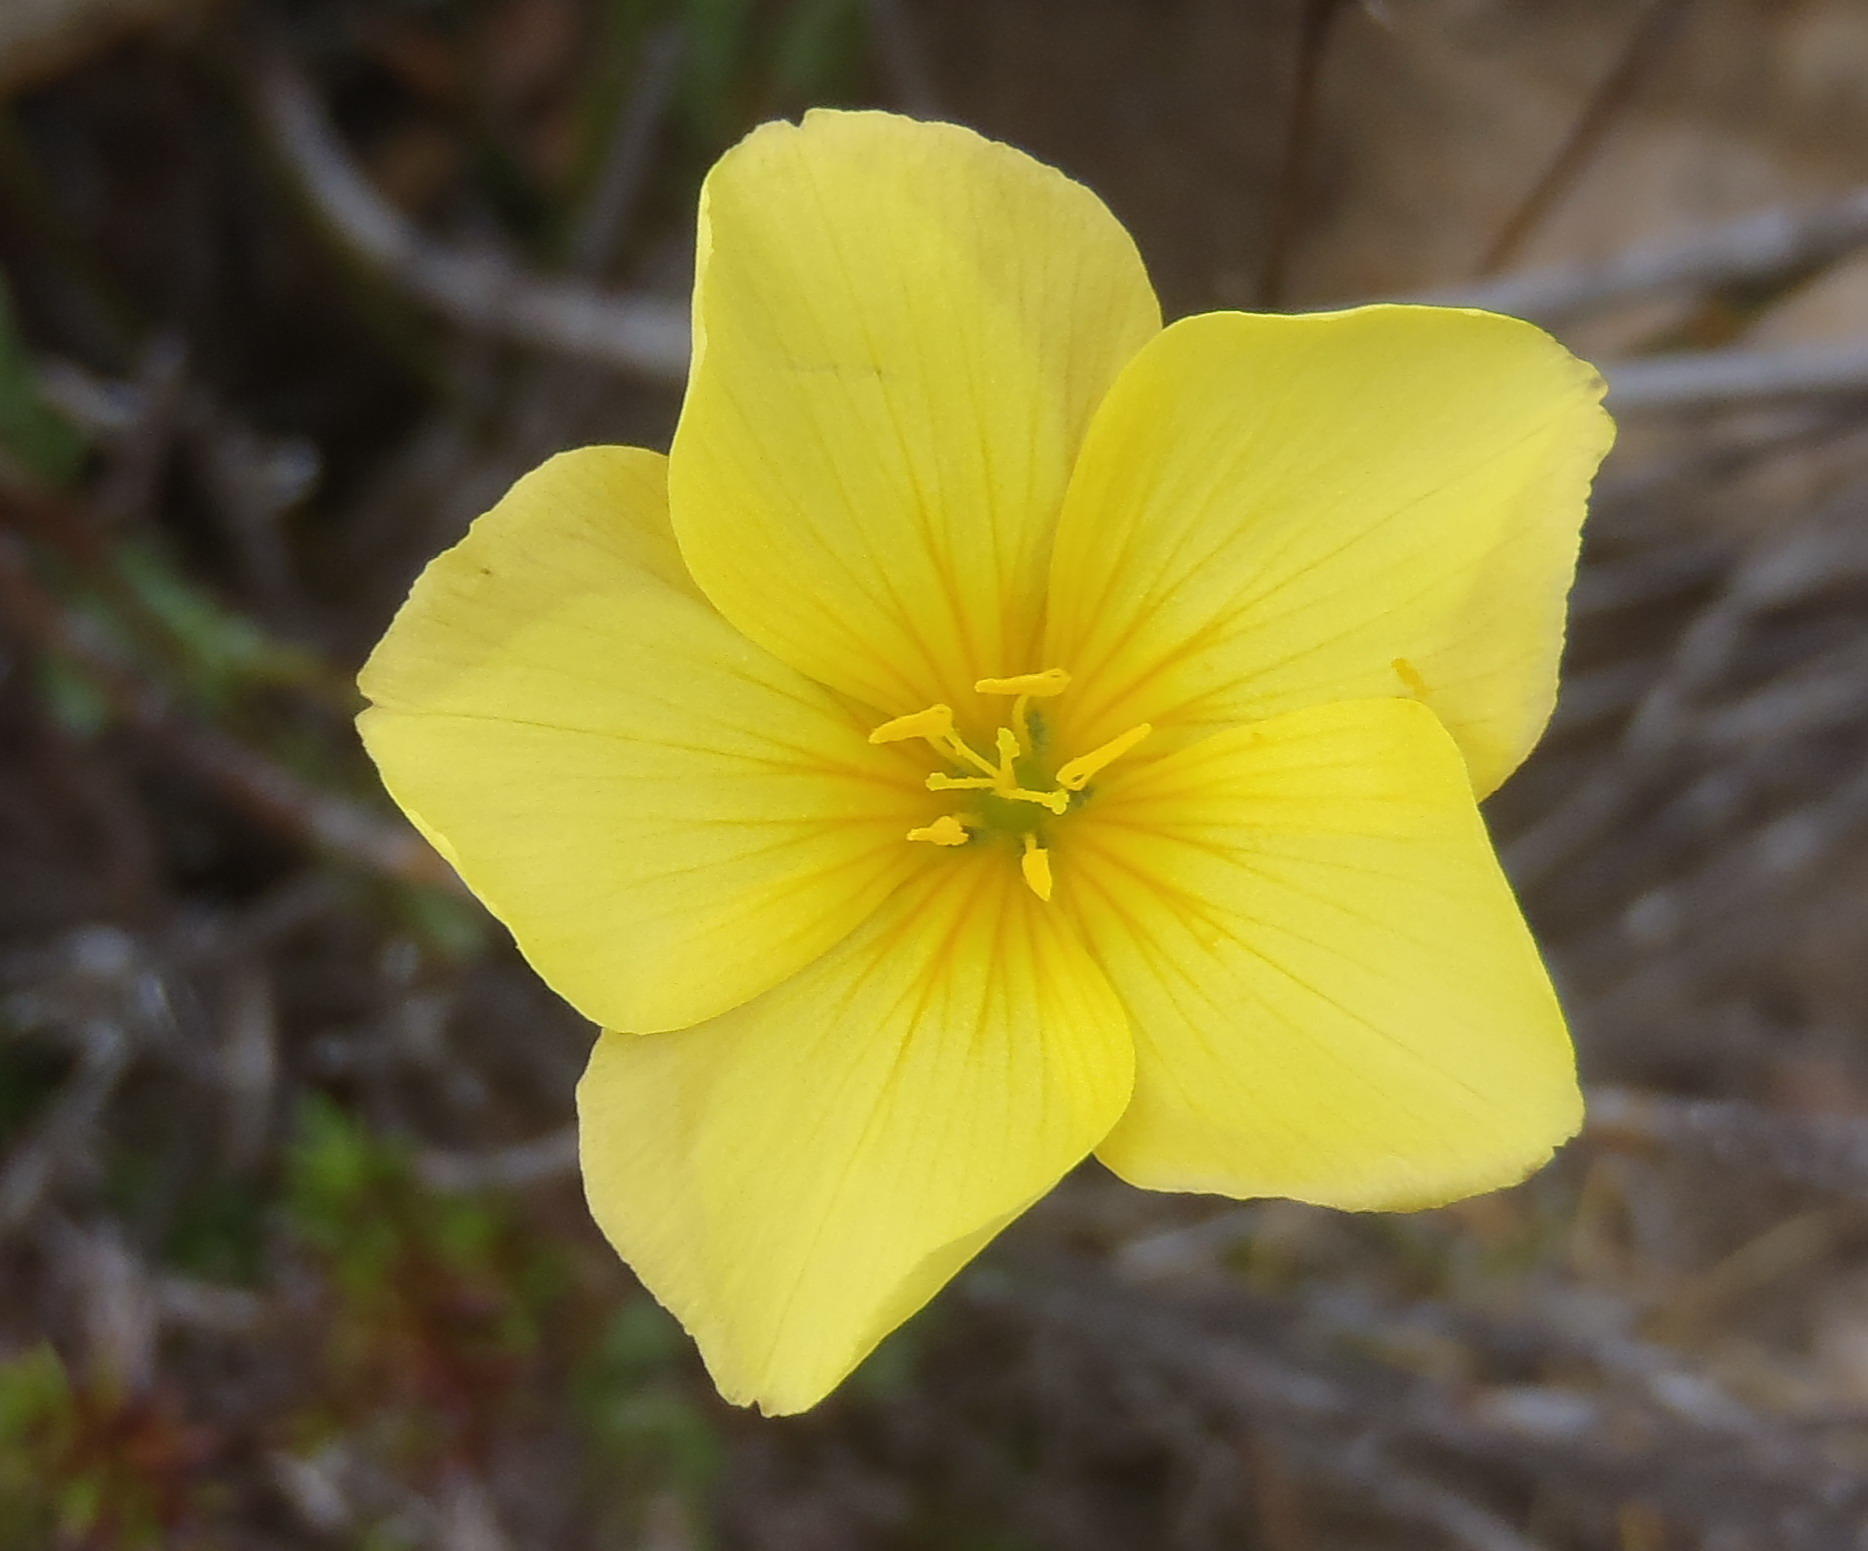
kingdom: Plantae
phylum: Tracheophyta
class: Magnoliopsida
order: Malpighiales
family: Linaceae
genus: Linum
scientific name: Linum africanum
